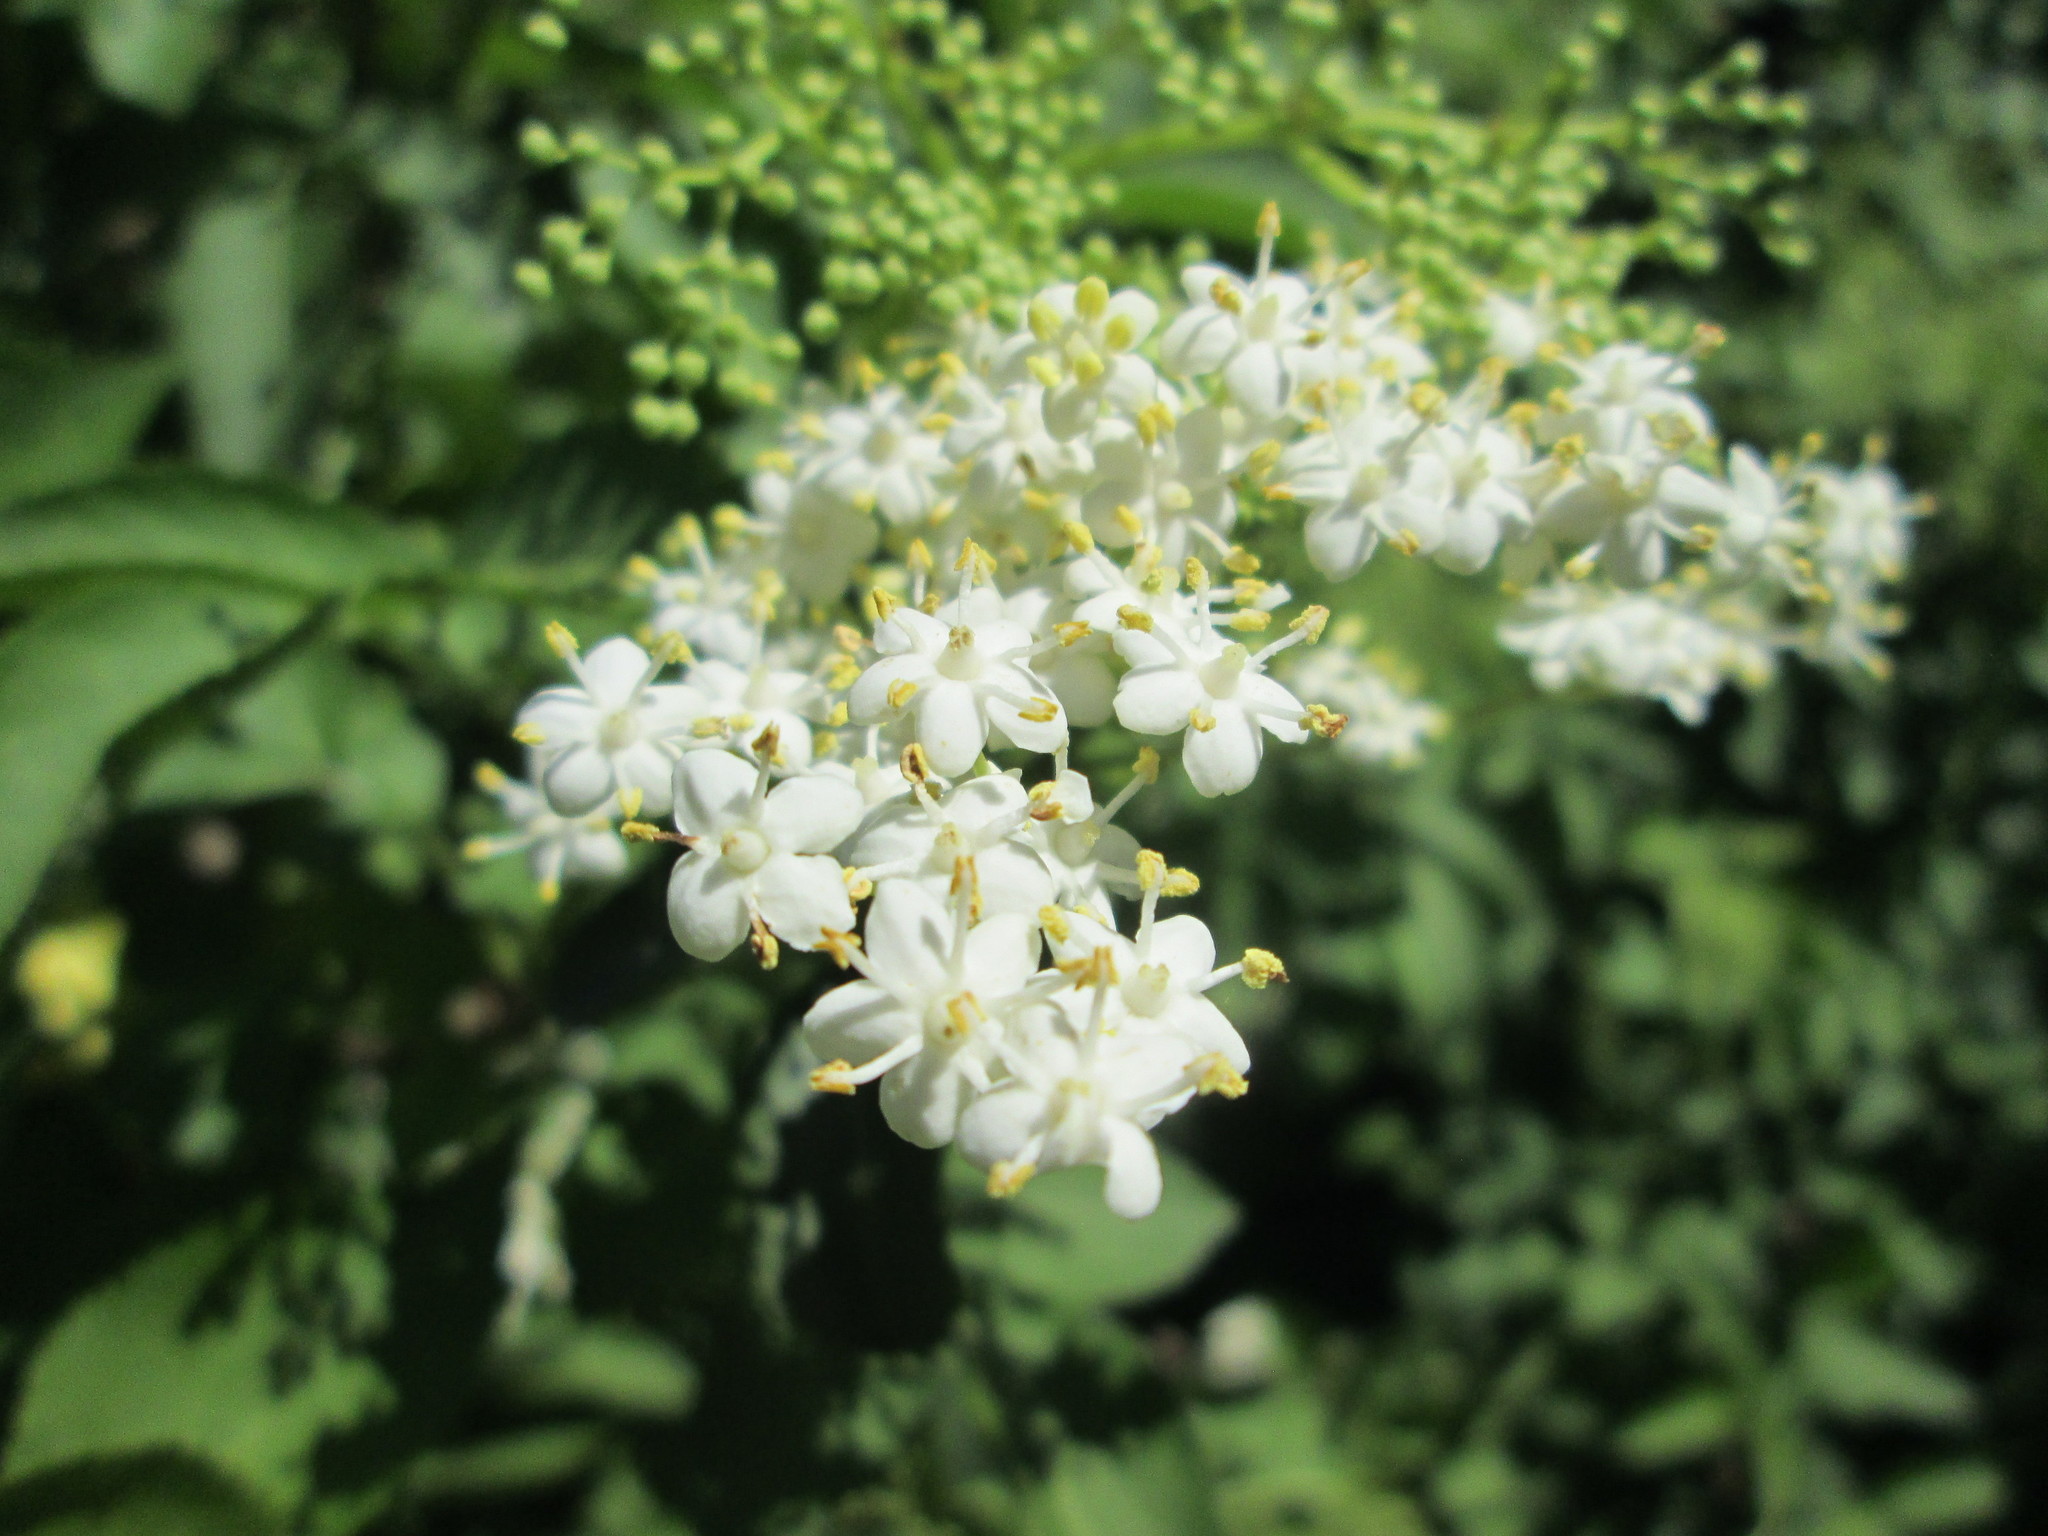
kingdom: Plantae
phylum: Tracheophyta
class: Magnoliopsida
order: Dipsacales
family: Viburnaceae
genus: Sambucus
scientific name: Sambucus nigra
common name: Elder
